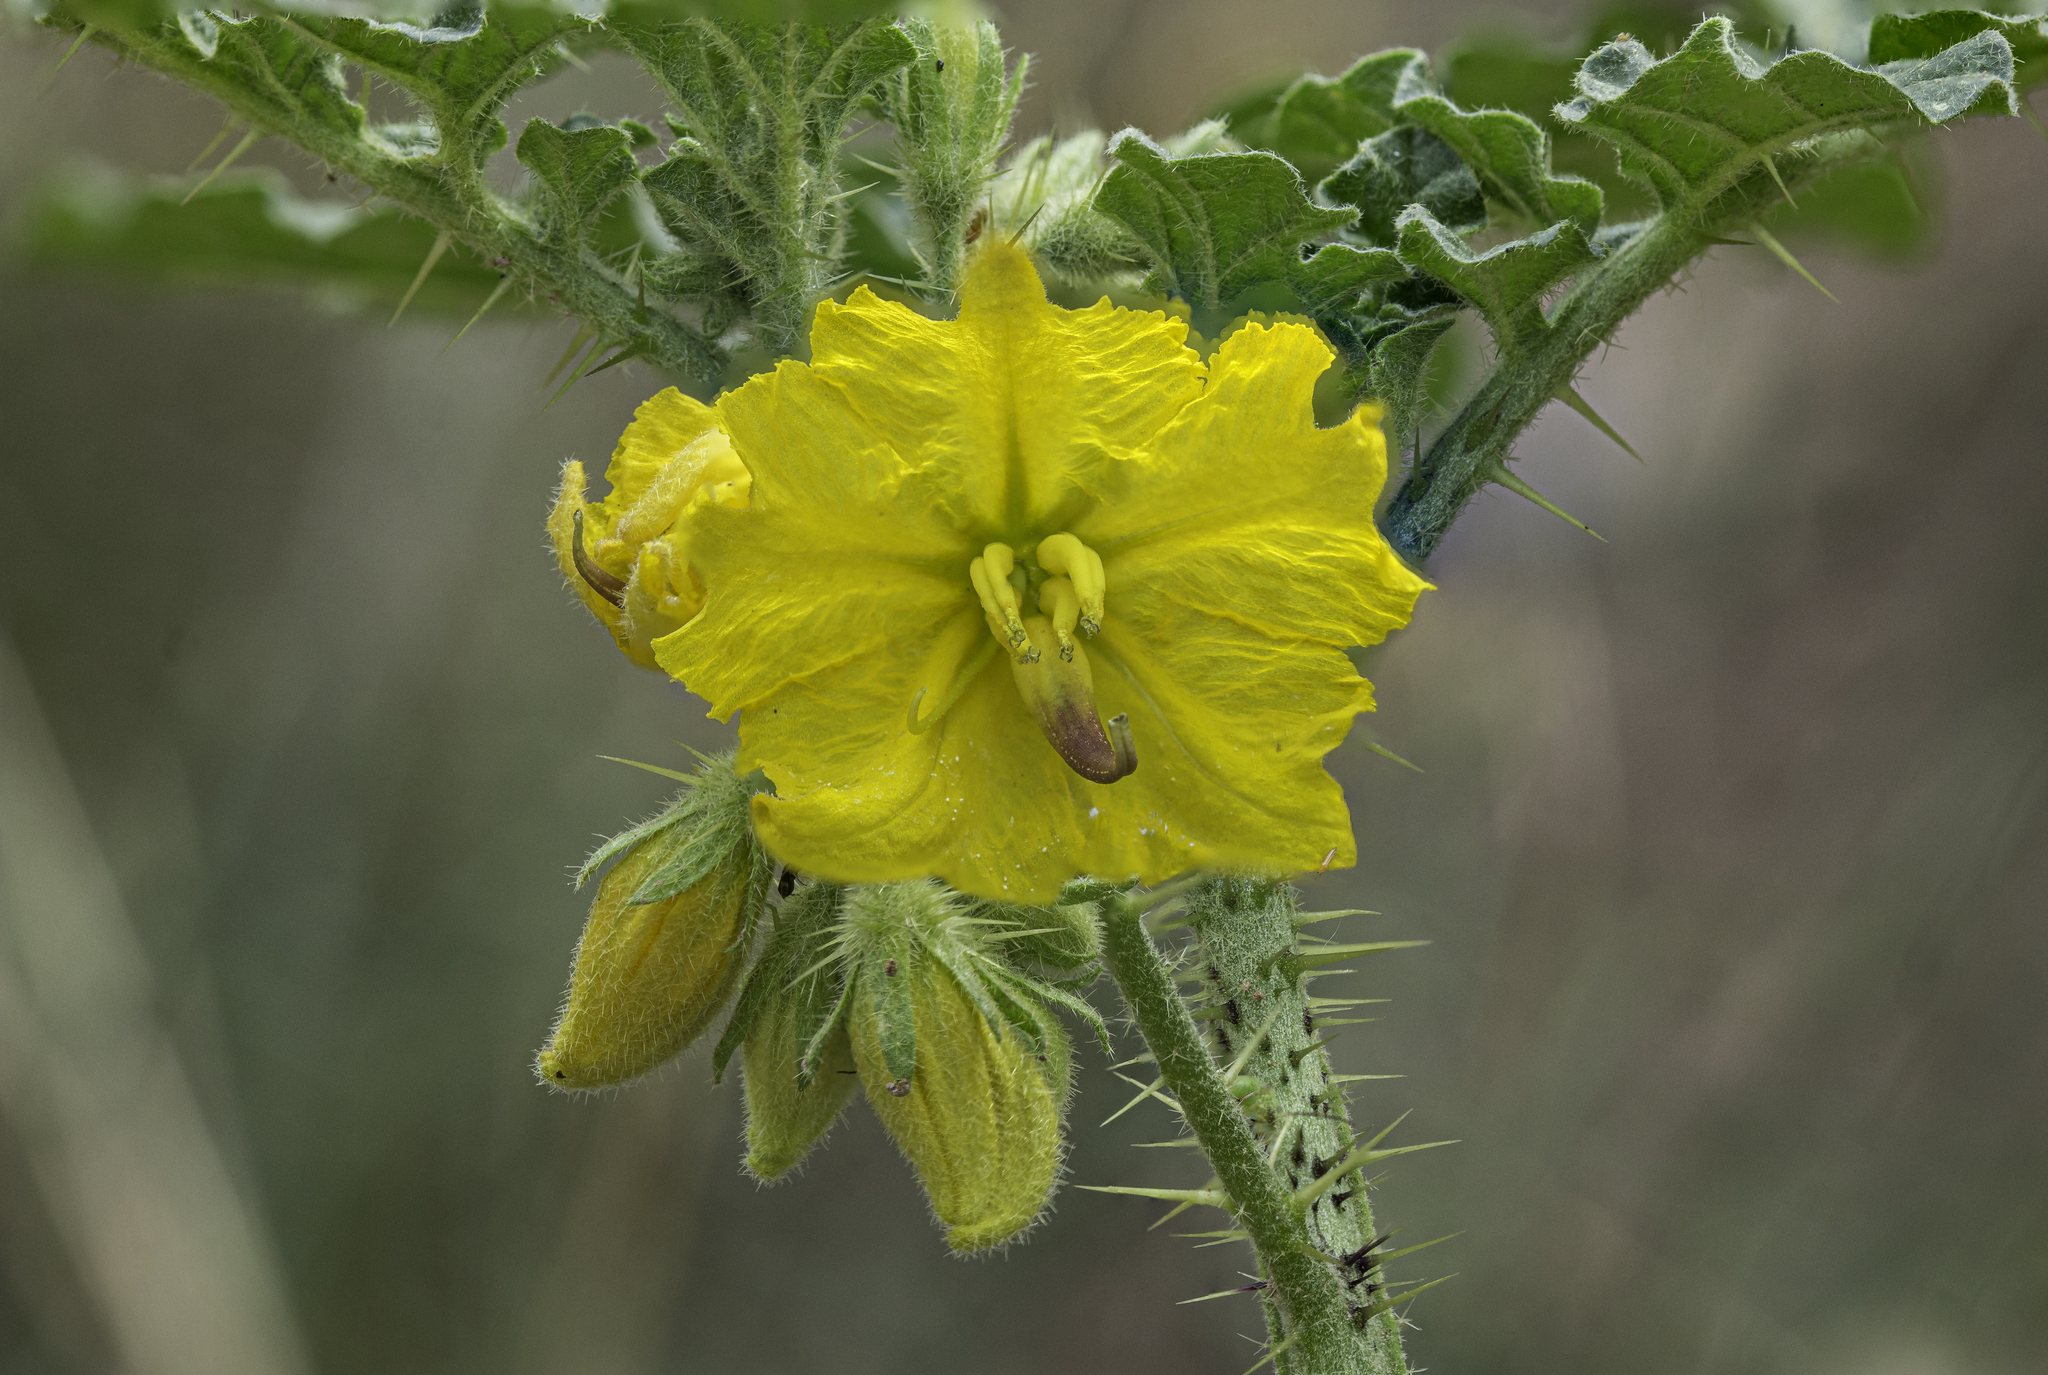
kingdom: Plantae
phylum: Tracheophyta
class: Magnoliopsida
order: Solanales
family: Solanaceae
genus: Solanum
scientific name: Solanum angustifolium
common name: Buffalobur nightshade
